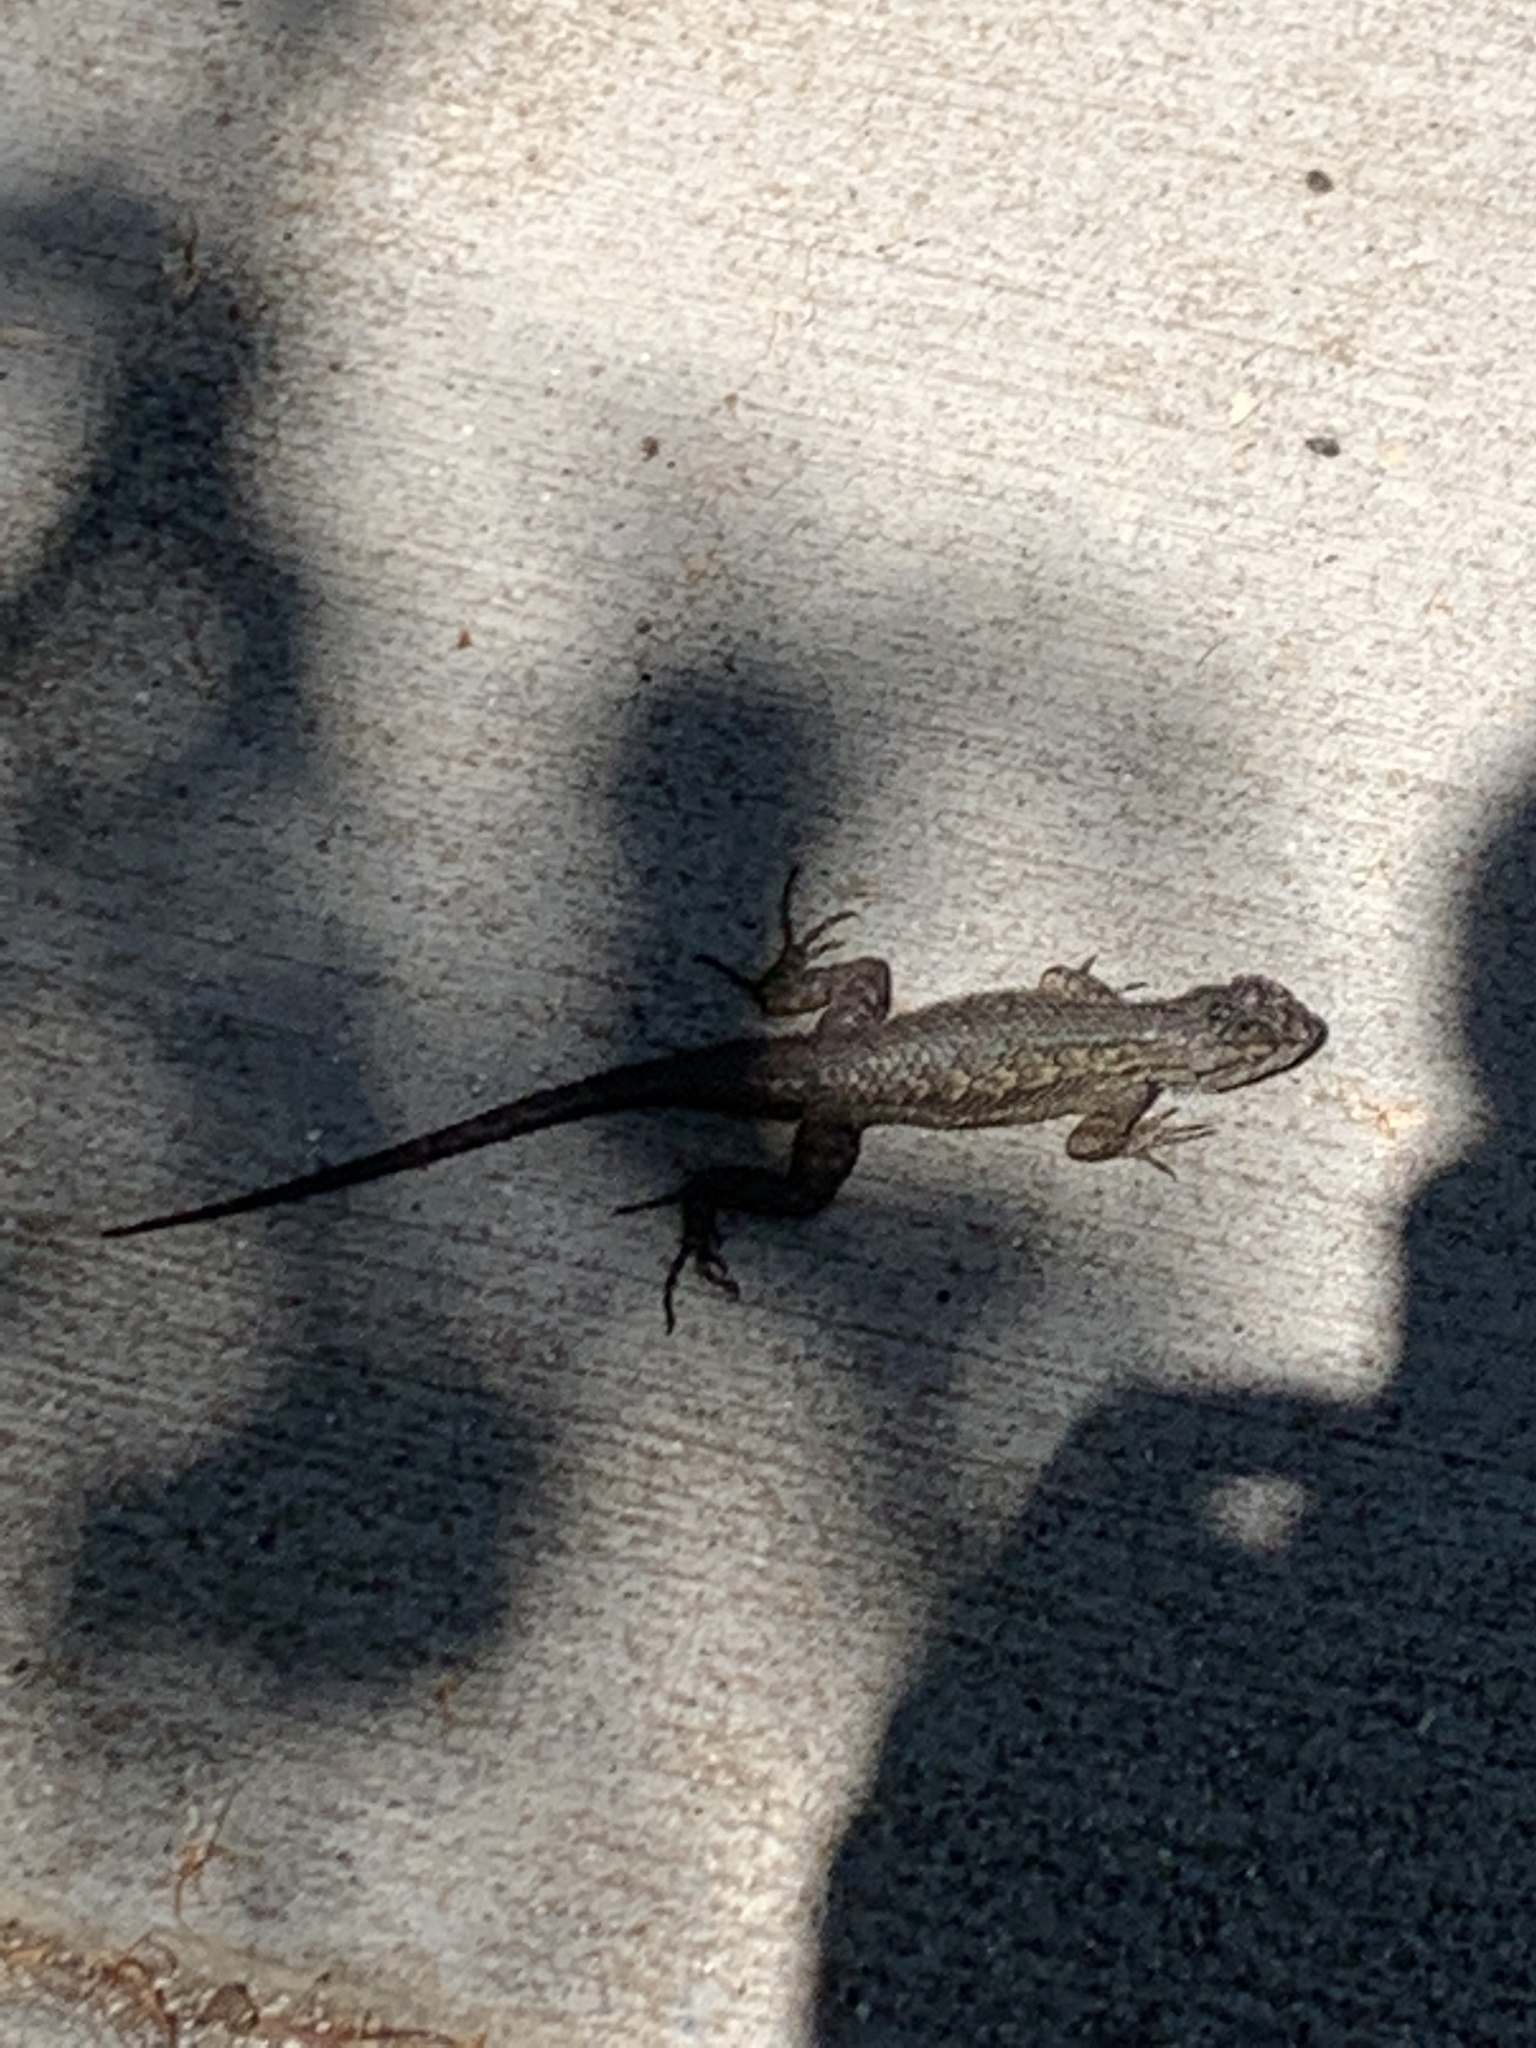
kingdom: Animalia
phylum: Chordata
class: Squamata
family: Phrynosomatidae
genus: Sceloporus
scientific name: Sceloporus occidentalis
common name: Western fence lizard
